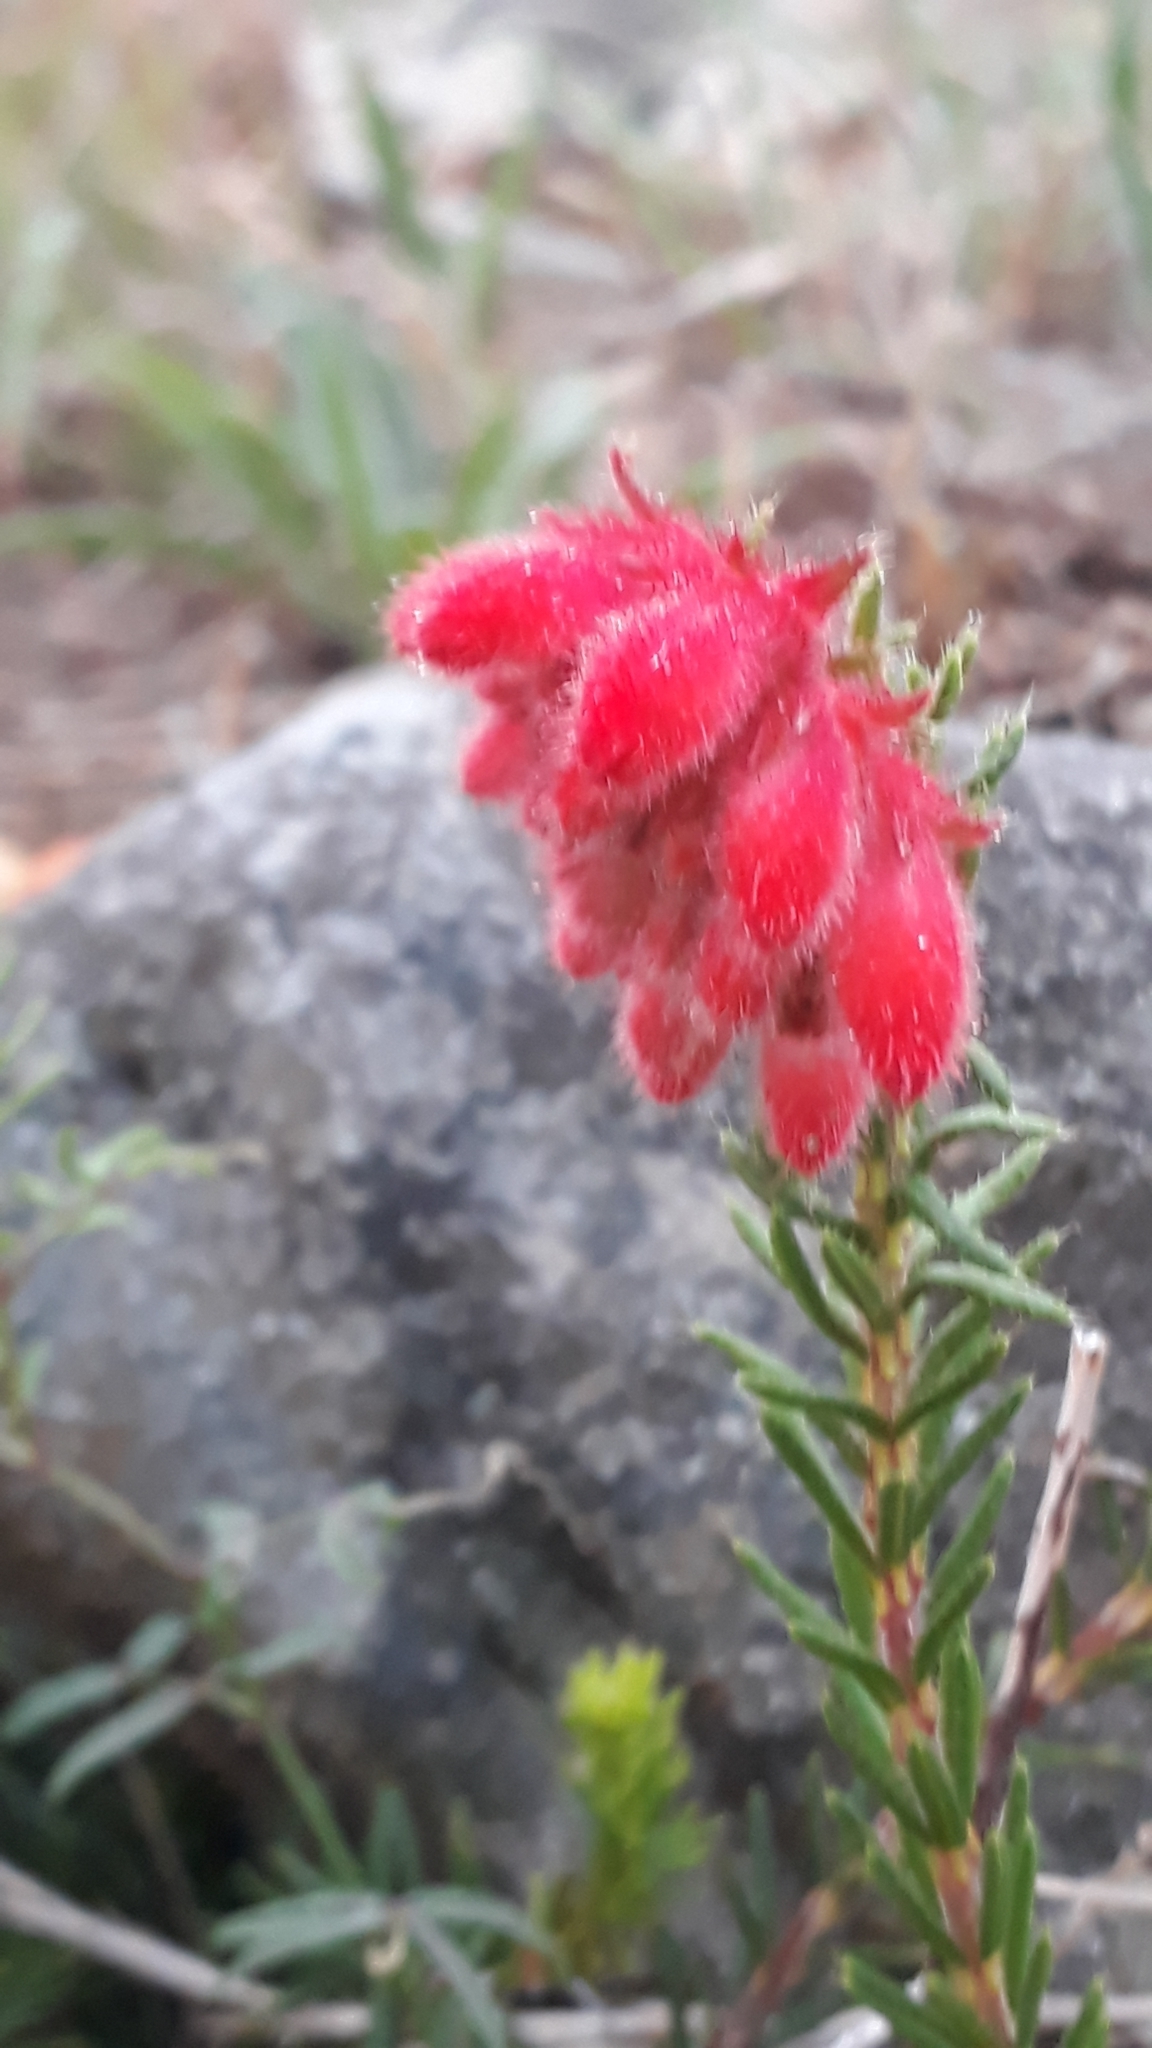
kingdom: Plantae
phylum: Tracheophyta
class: Magnoliopsida
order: Ericales
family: Ericaceae
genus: Erica
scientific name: Erica cerinthoides
